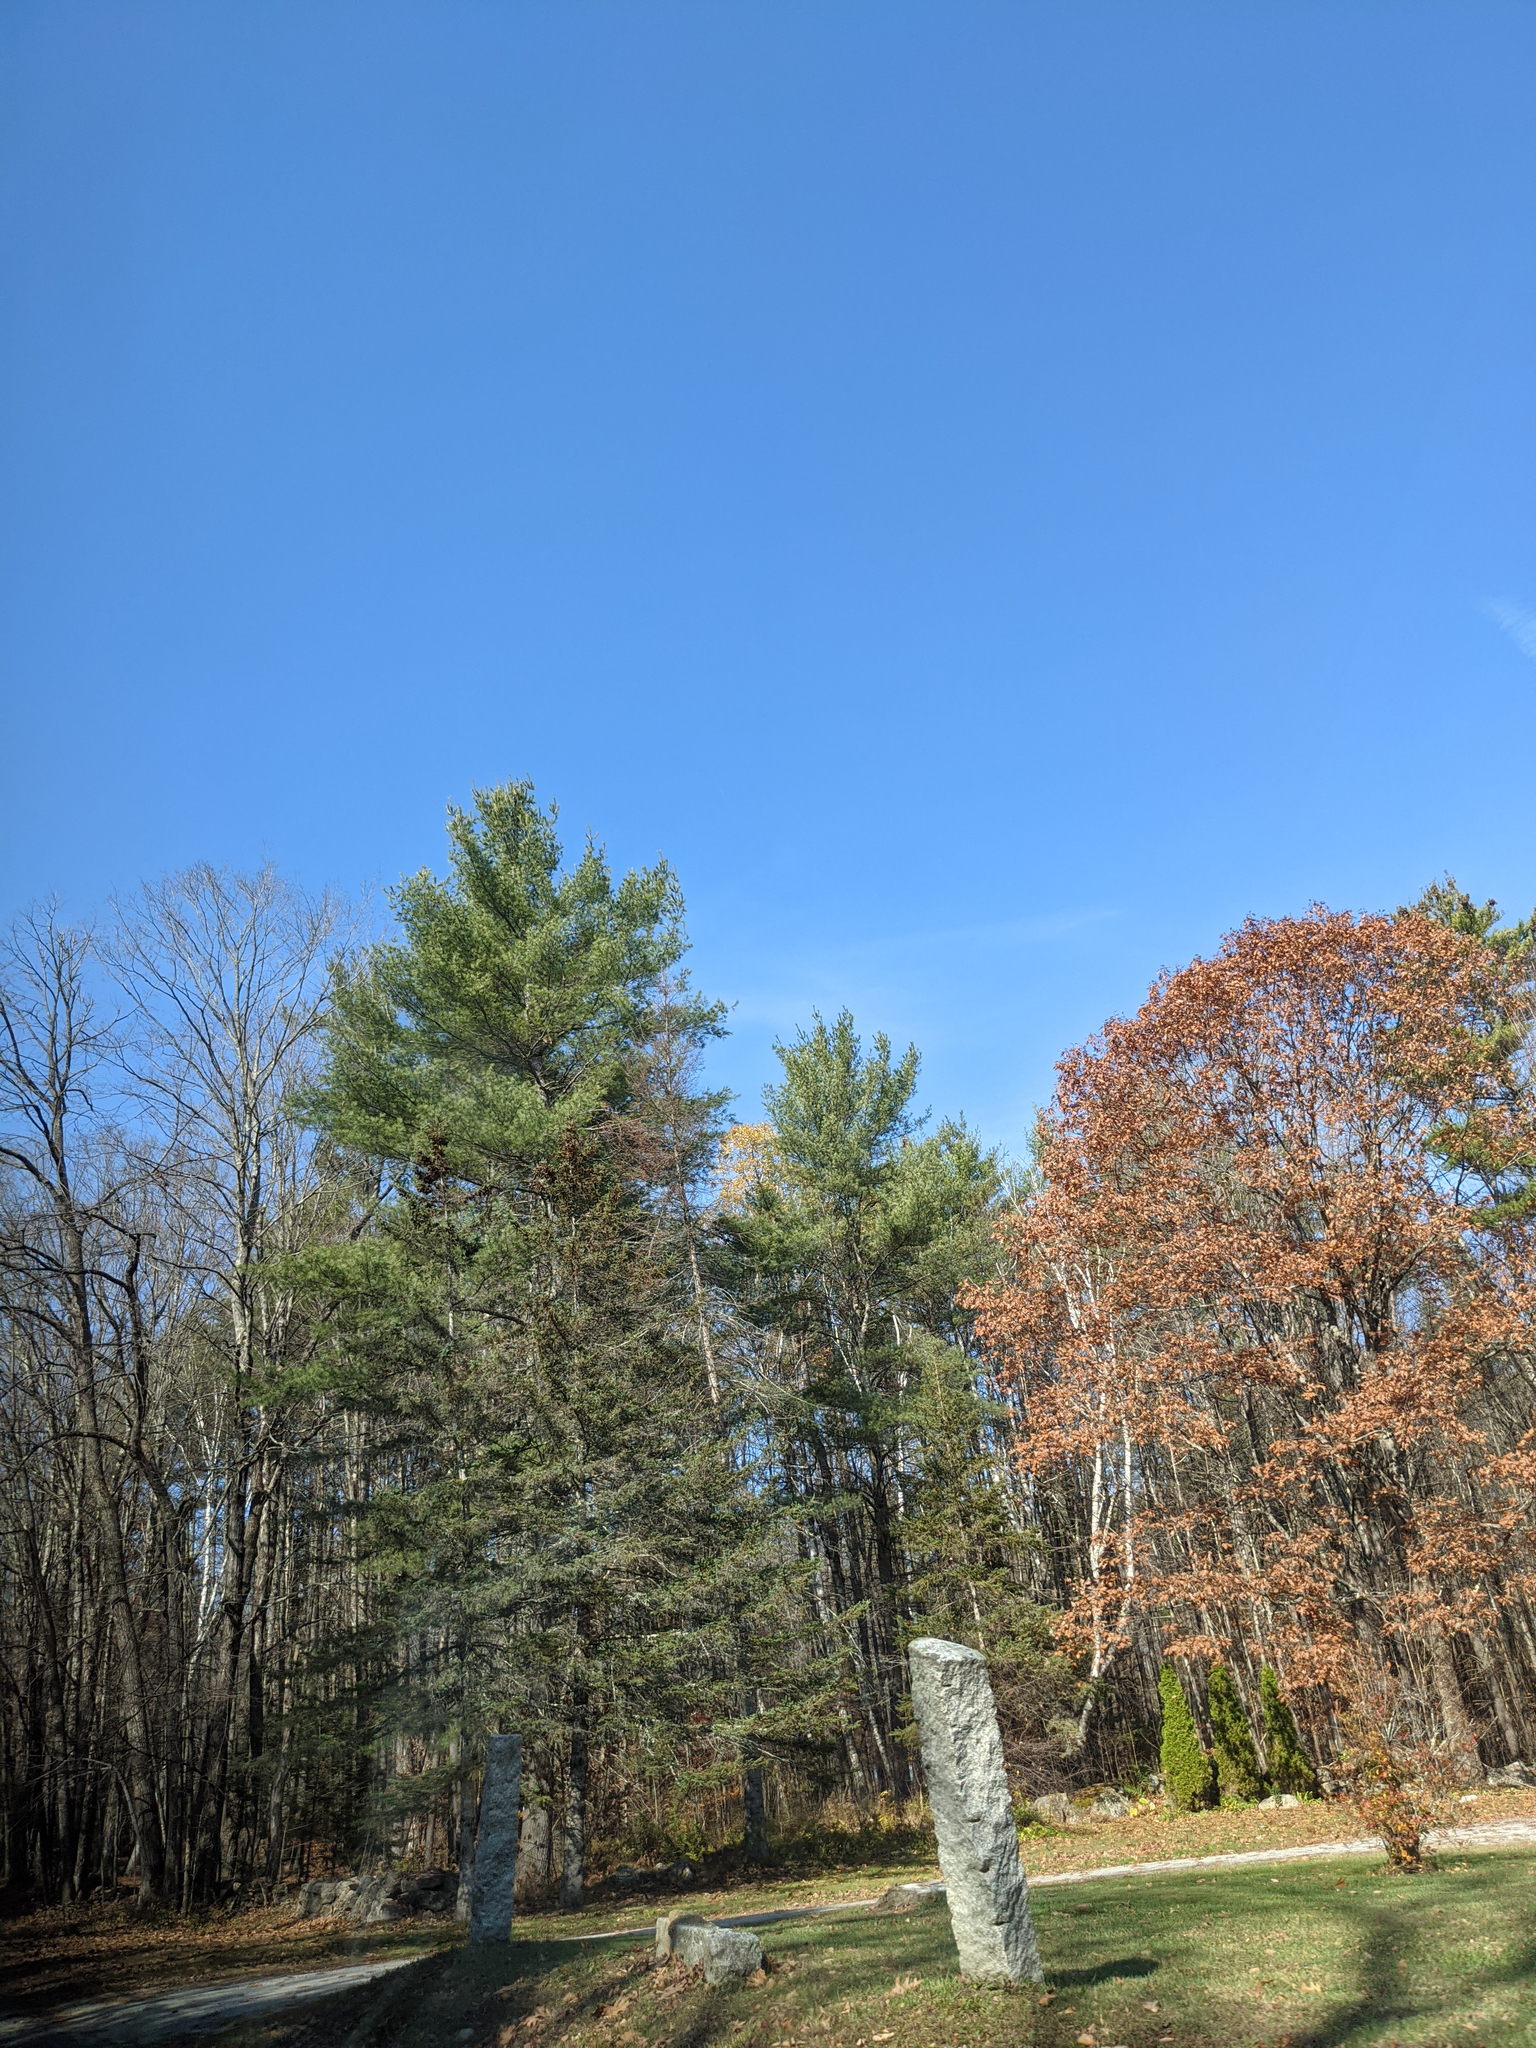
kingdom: Plantae
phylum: Tracheophyta
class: Pinopsida
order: Pinales
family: Pinaceae
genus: Pinus
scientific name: Pinus strobus
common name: Weymouth pine
